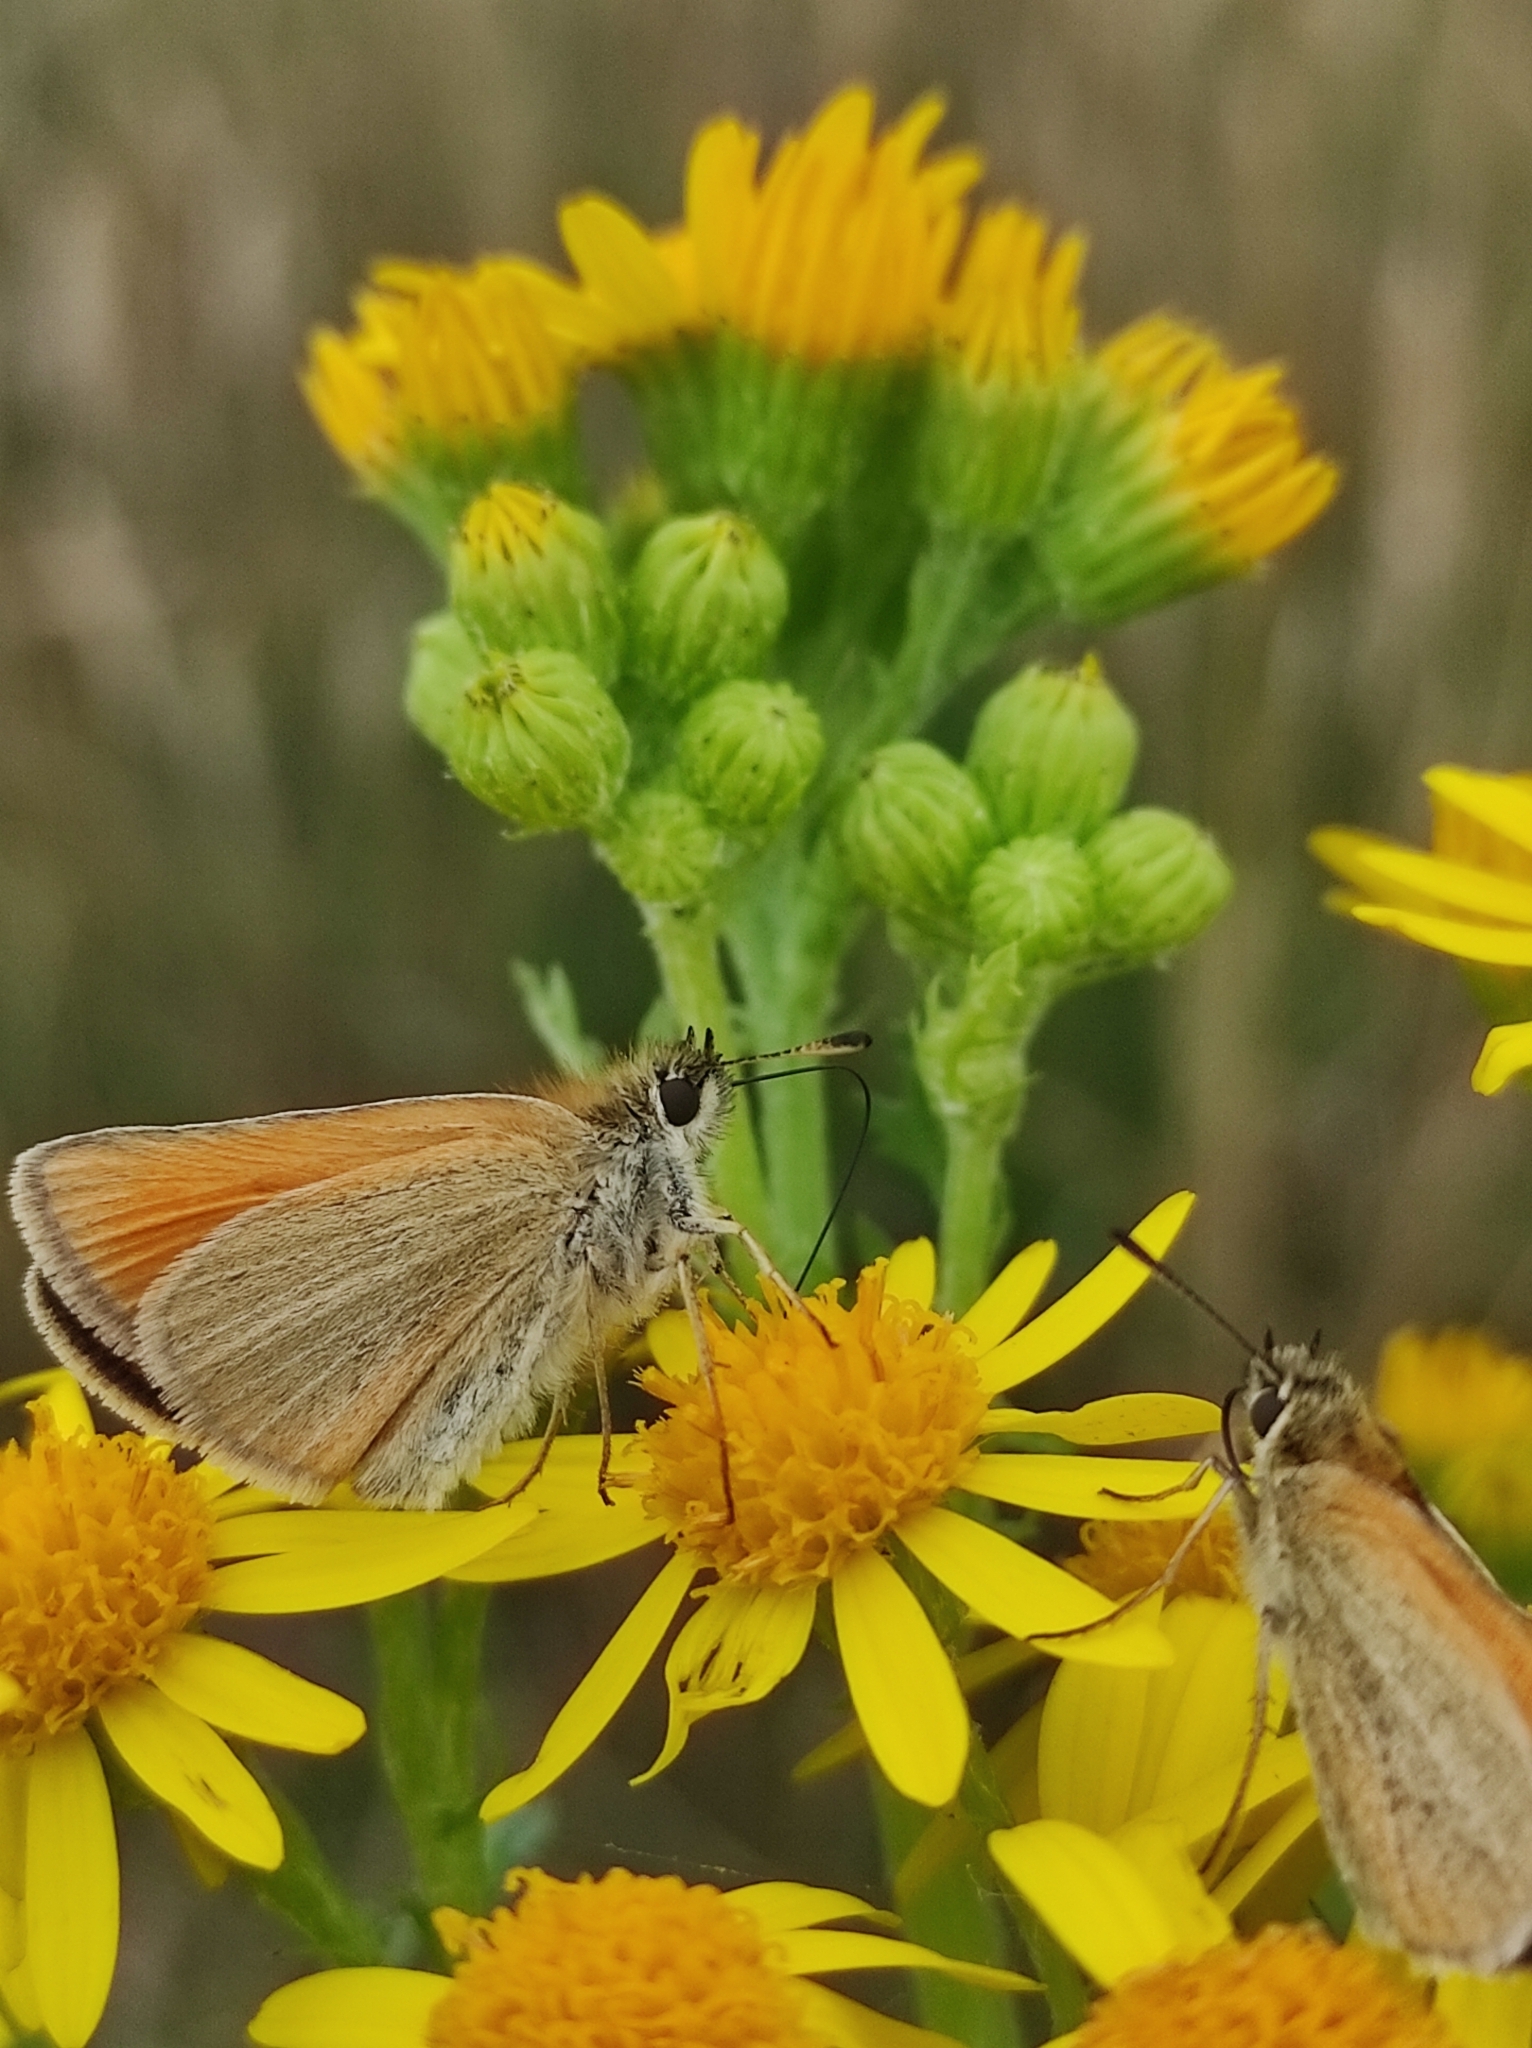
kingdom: Animalia
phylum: Arthropoda
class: Insecta
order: Lepidoptera
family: Hesperiidae
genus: Thymelicus
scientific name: Thymelicus lineola
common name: Essex skipper
